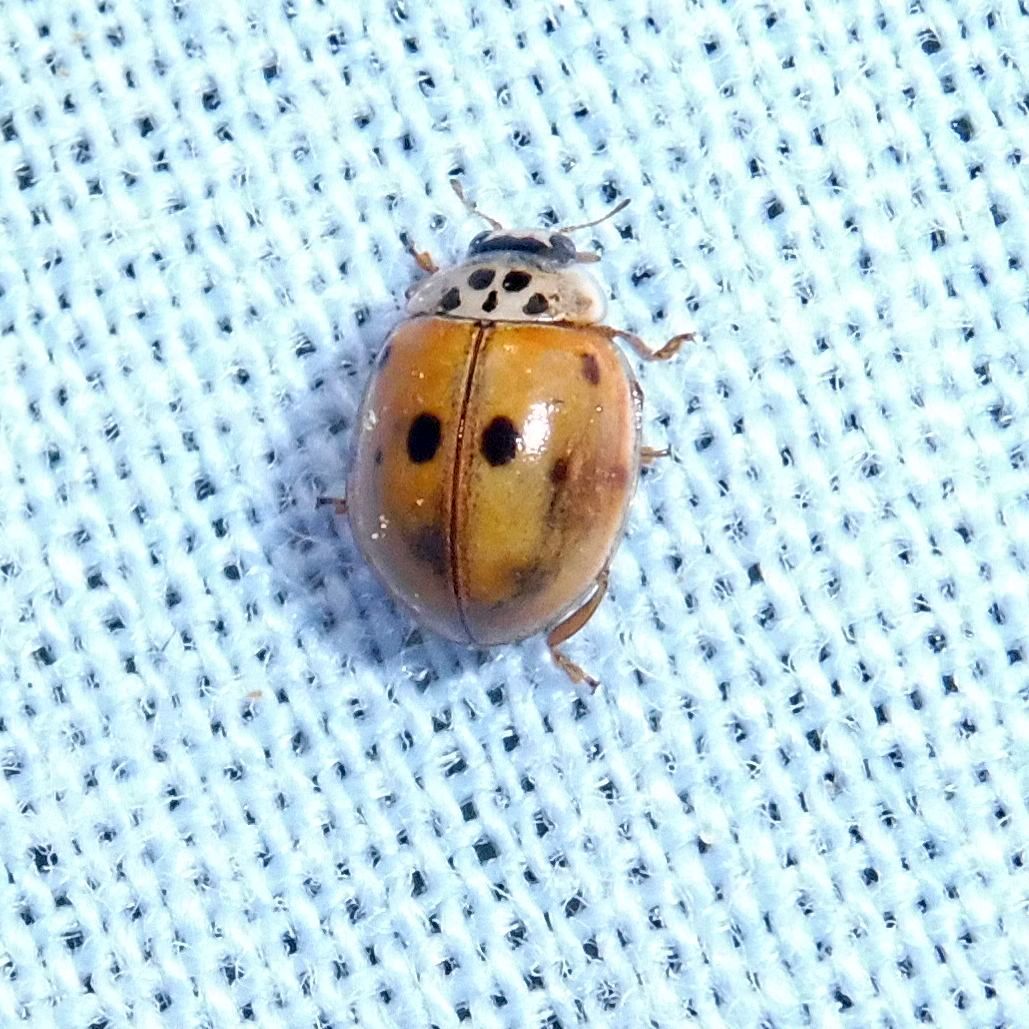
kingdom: Animalia
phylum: Arthropoda
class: Insecta
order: Coleoptera
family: Coccinellidae
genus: Adalia
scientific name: Adalia decempunctata
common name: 10-spot ladybird
